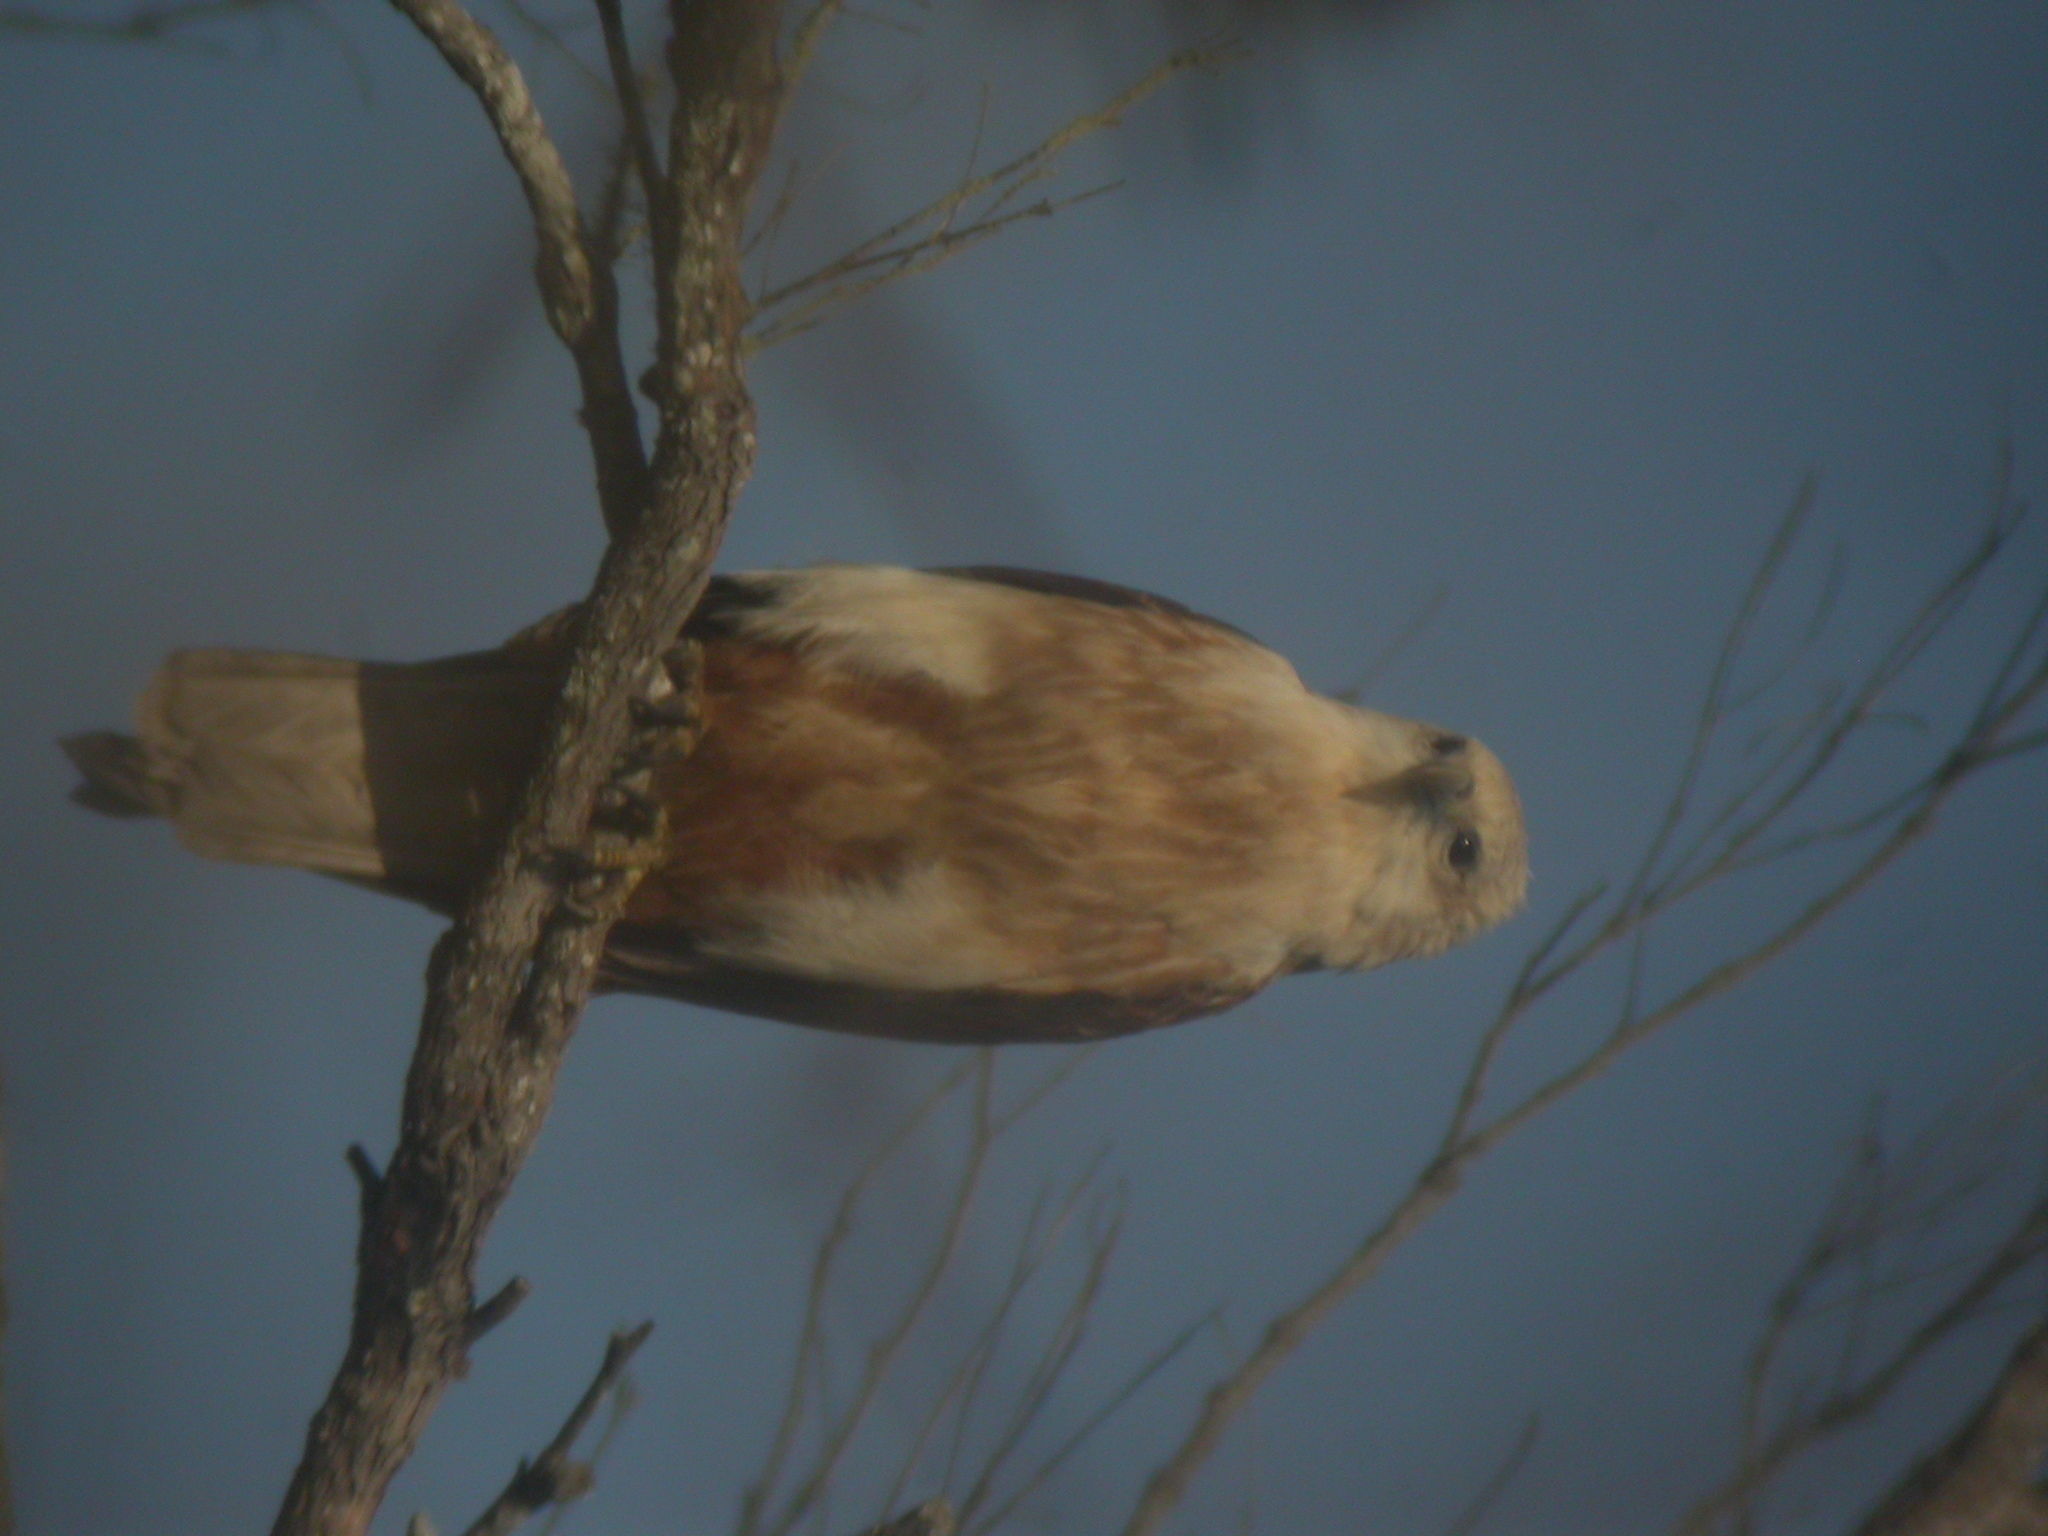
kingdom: Animalia
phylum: Chordata
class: Aves
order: Accipitriformes
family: Accipitridae
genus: Haliastur
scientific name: Haliastur indus
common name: Brahminy kite
